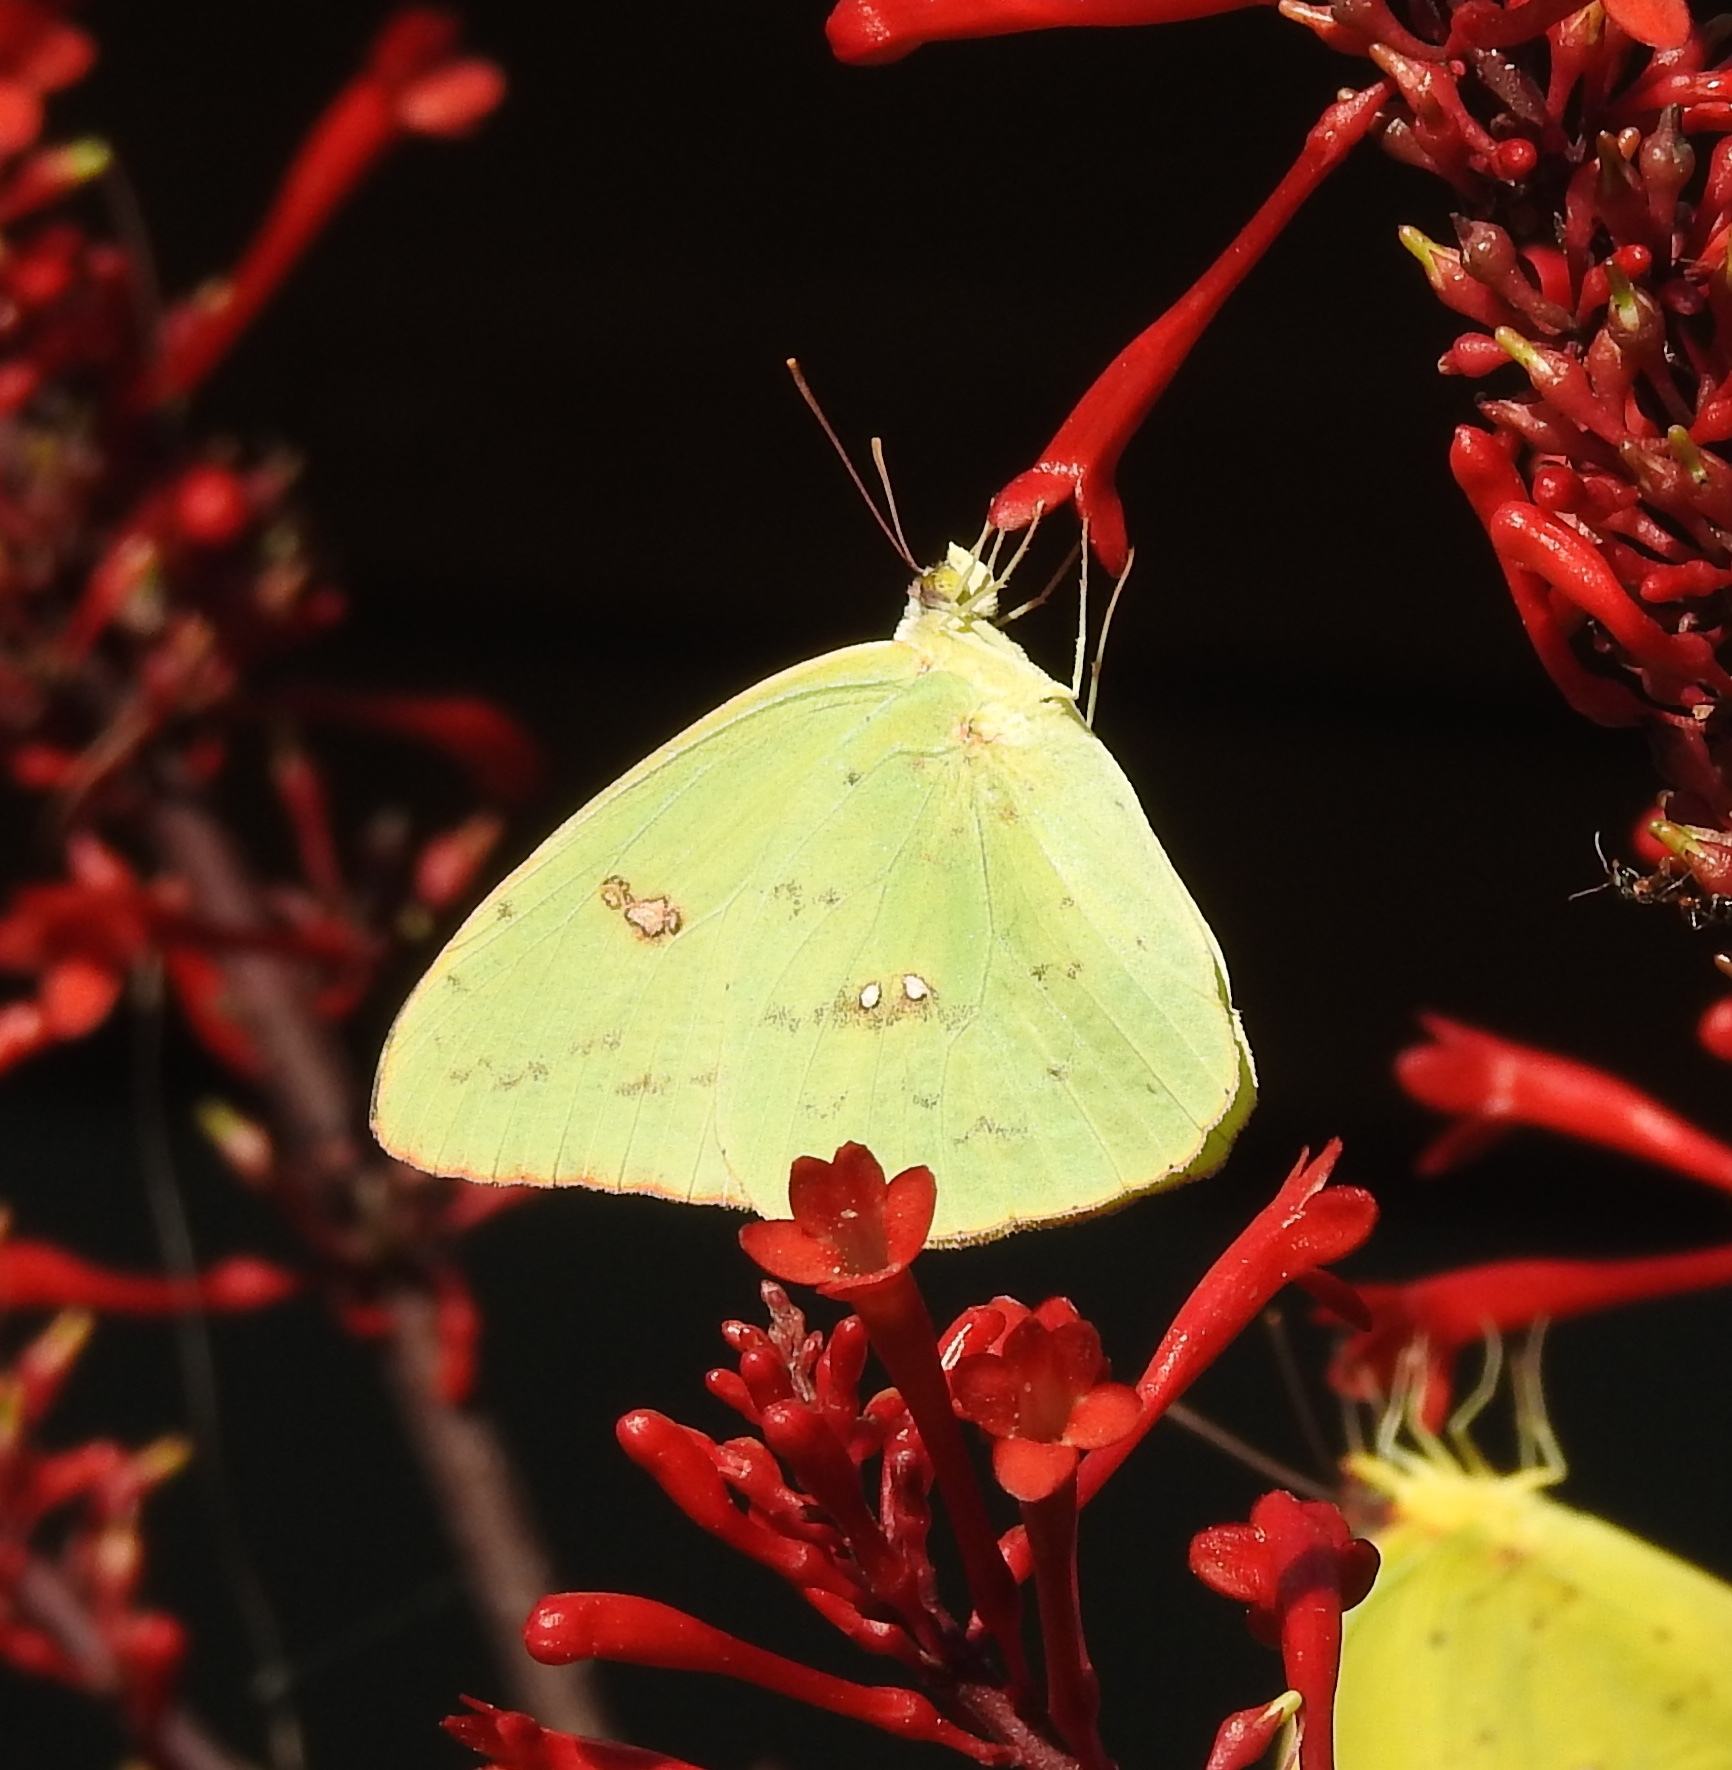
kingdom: Animalia
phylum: Arthropoda
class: Insecta
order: Lepidoptera
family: Pieridae
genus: Phoebis
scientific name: Phoebis sennae
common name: Cloudless sulphur
